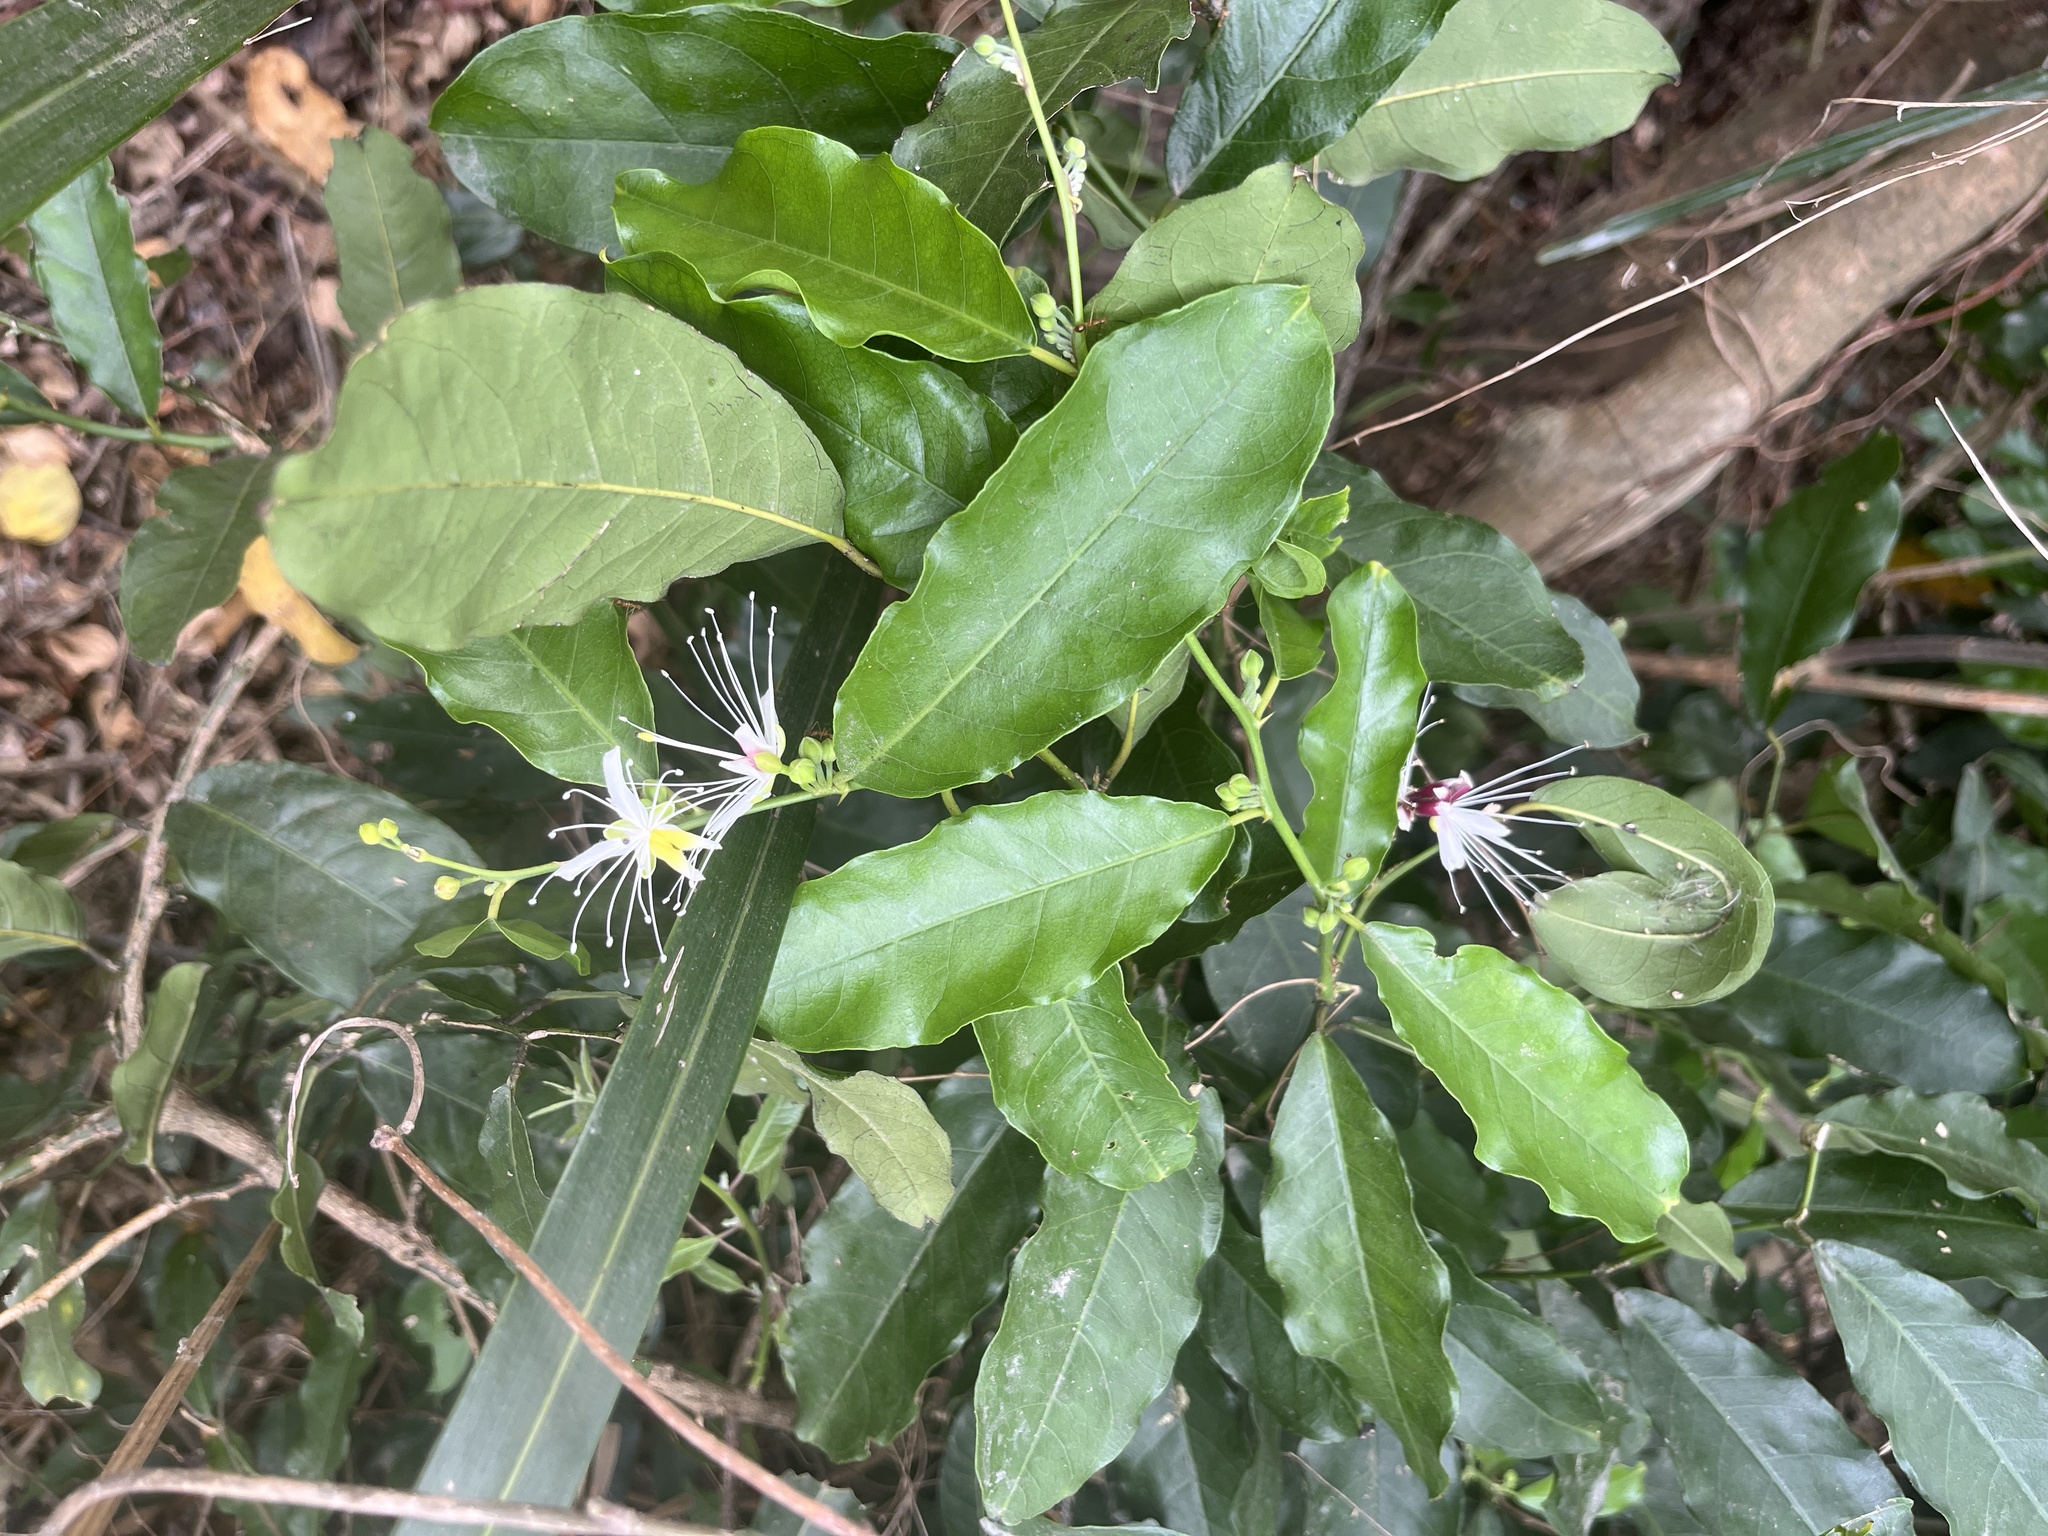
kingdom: Plantae
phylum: Tracheophyta
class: Magnoliopsida
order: Brassicales
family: Capparaceae
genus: Capparis
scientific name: Capparis micracantha
